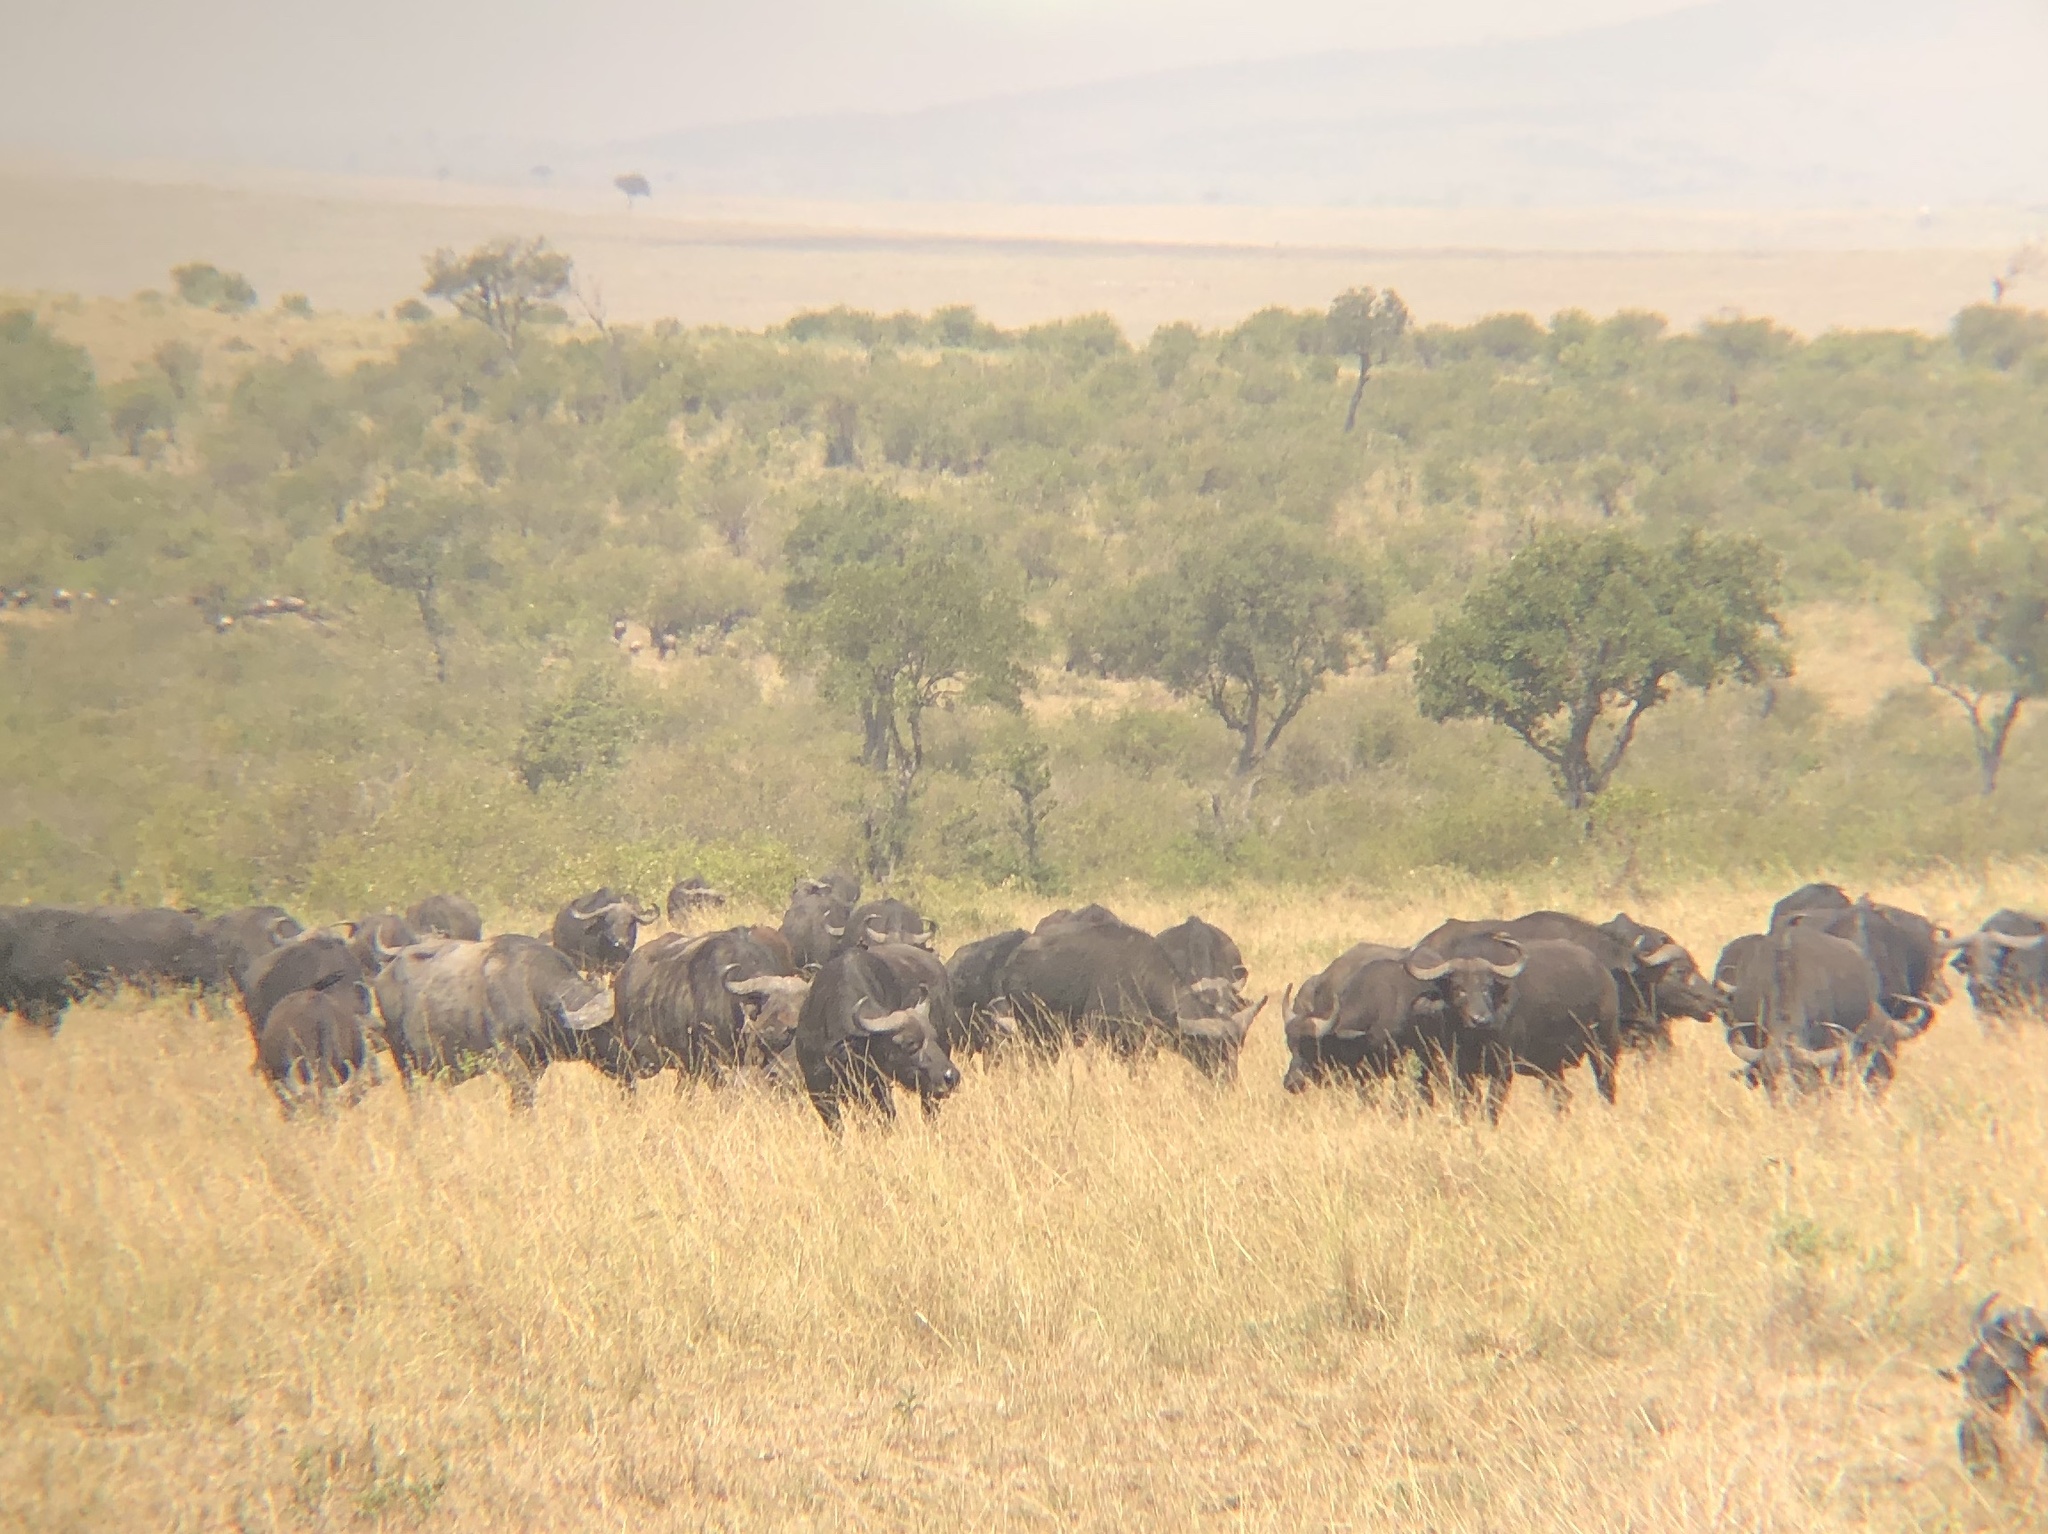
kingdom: Animalia
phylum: Chordata
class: Mammalia
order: Artiodactyla
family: Bovidae
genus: Syncerus
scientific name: Syncerus caffer
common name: African buffalo
